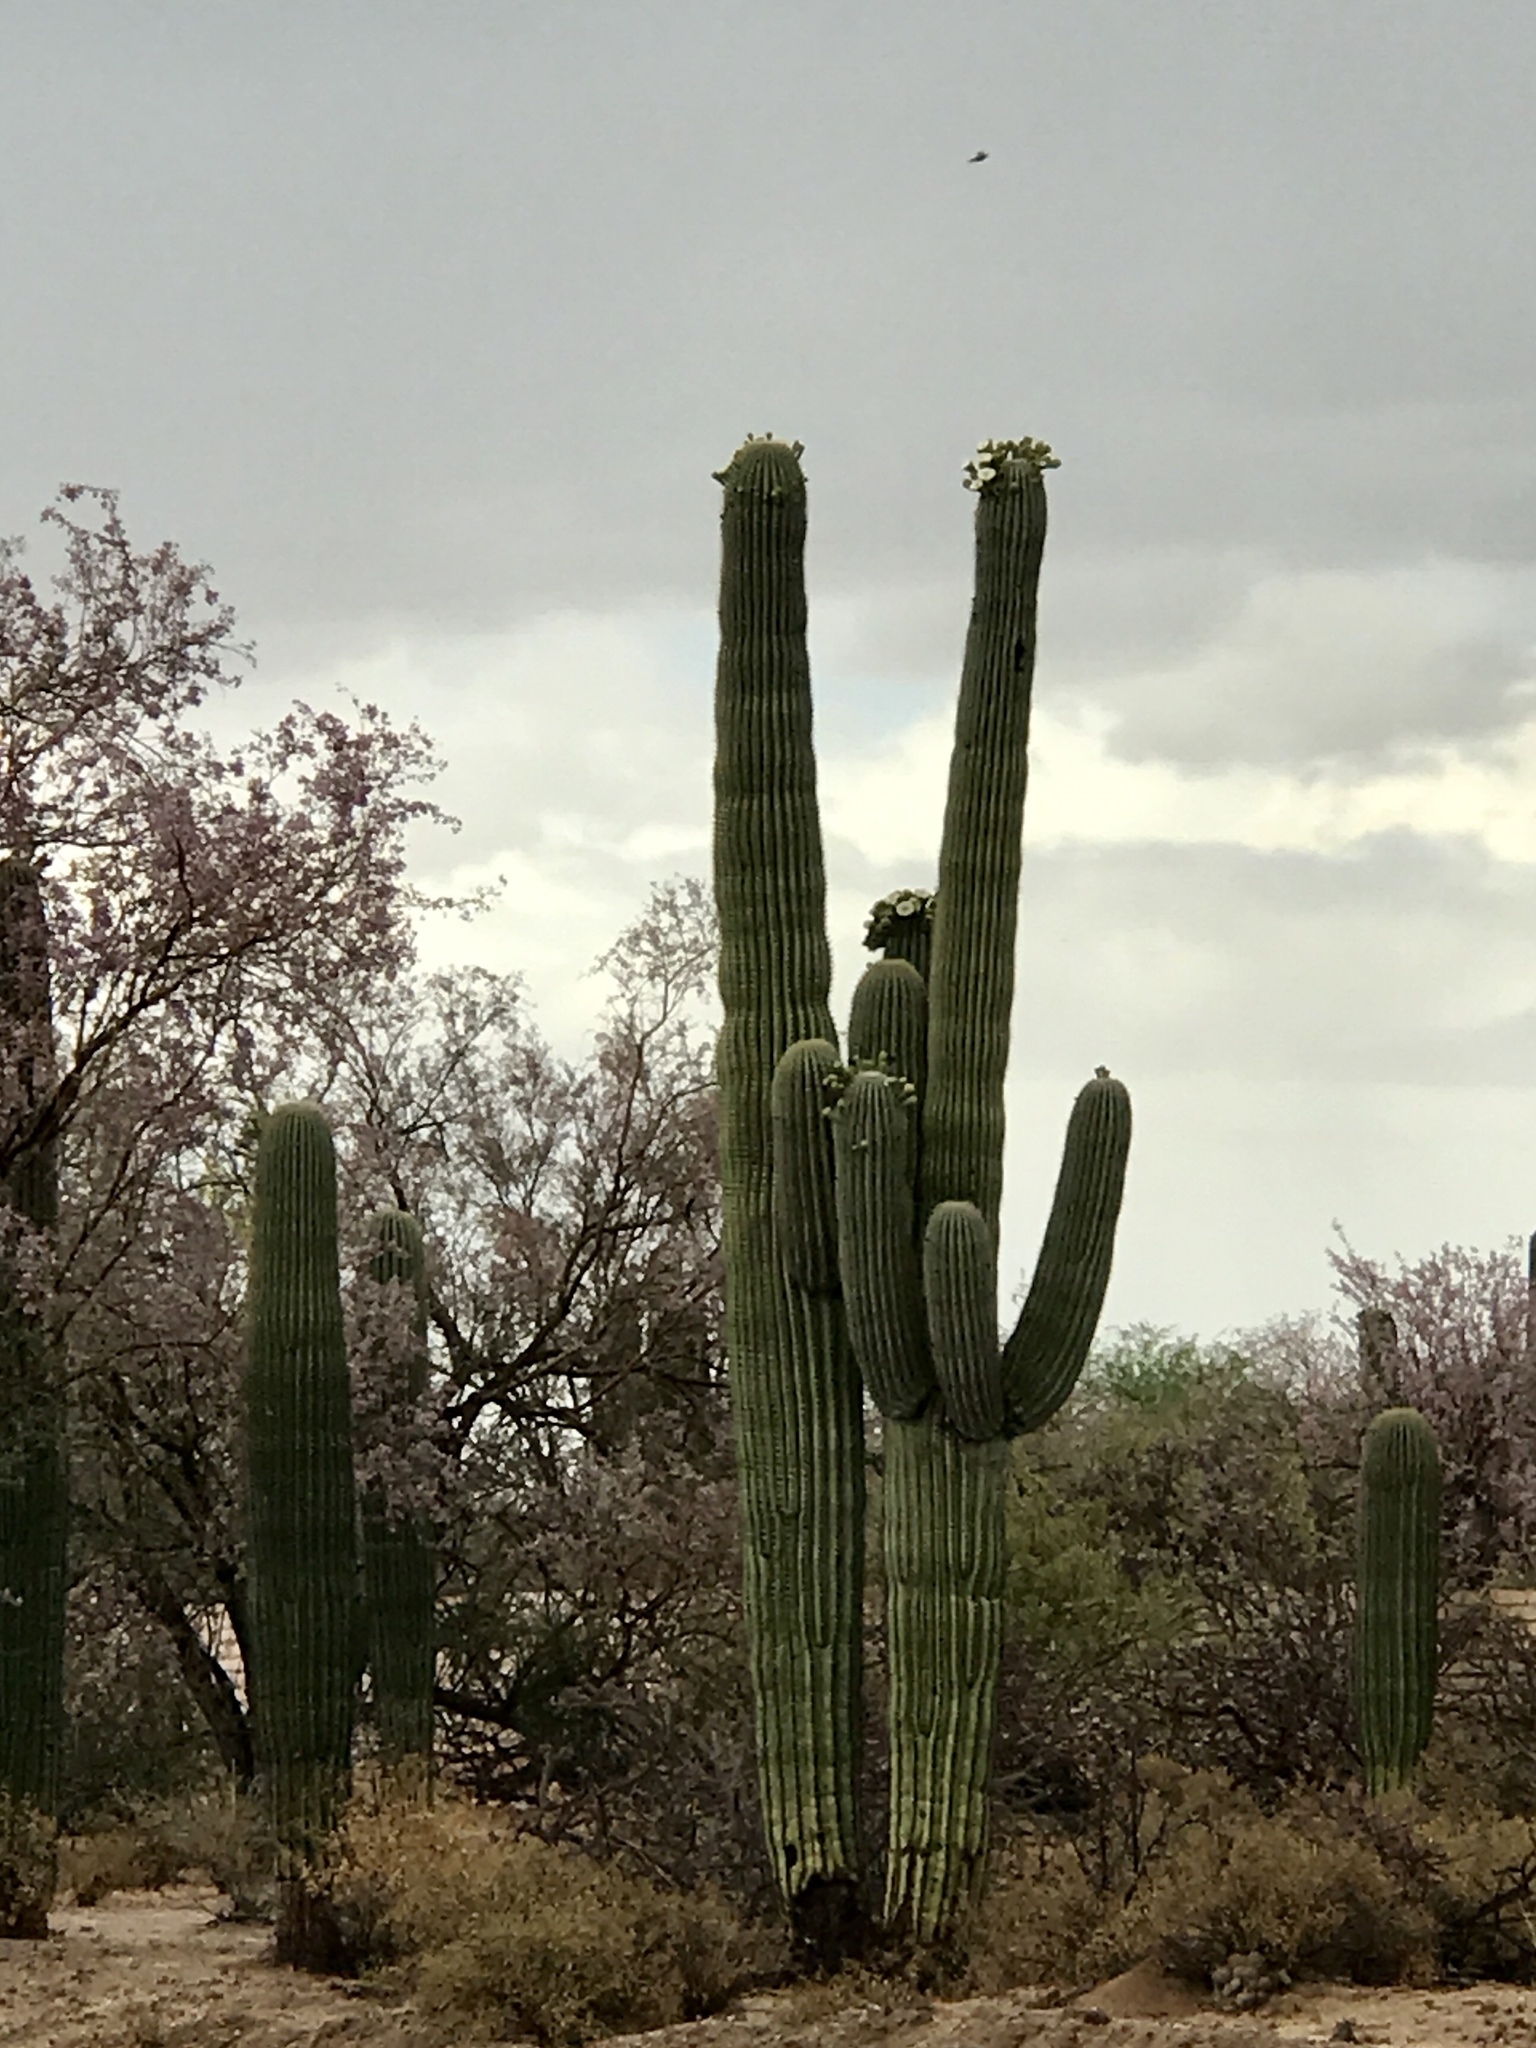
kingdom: Plantae
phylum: Tracheophyta
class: Magnoliopsida
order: Caryophyllales
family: Cactaceae
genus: Carnegiea
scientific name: Carnegiea gigantea
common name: Saguaro
